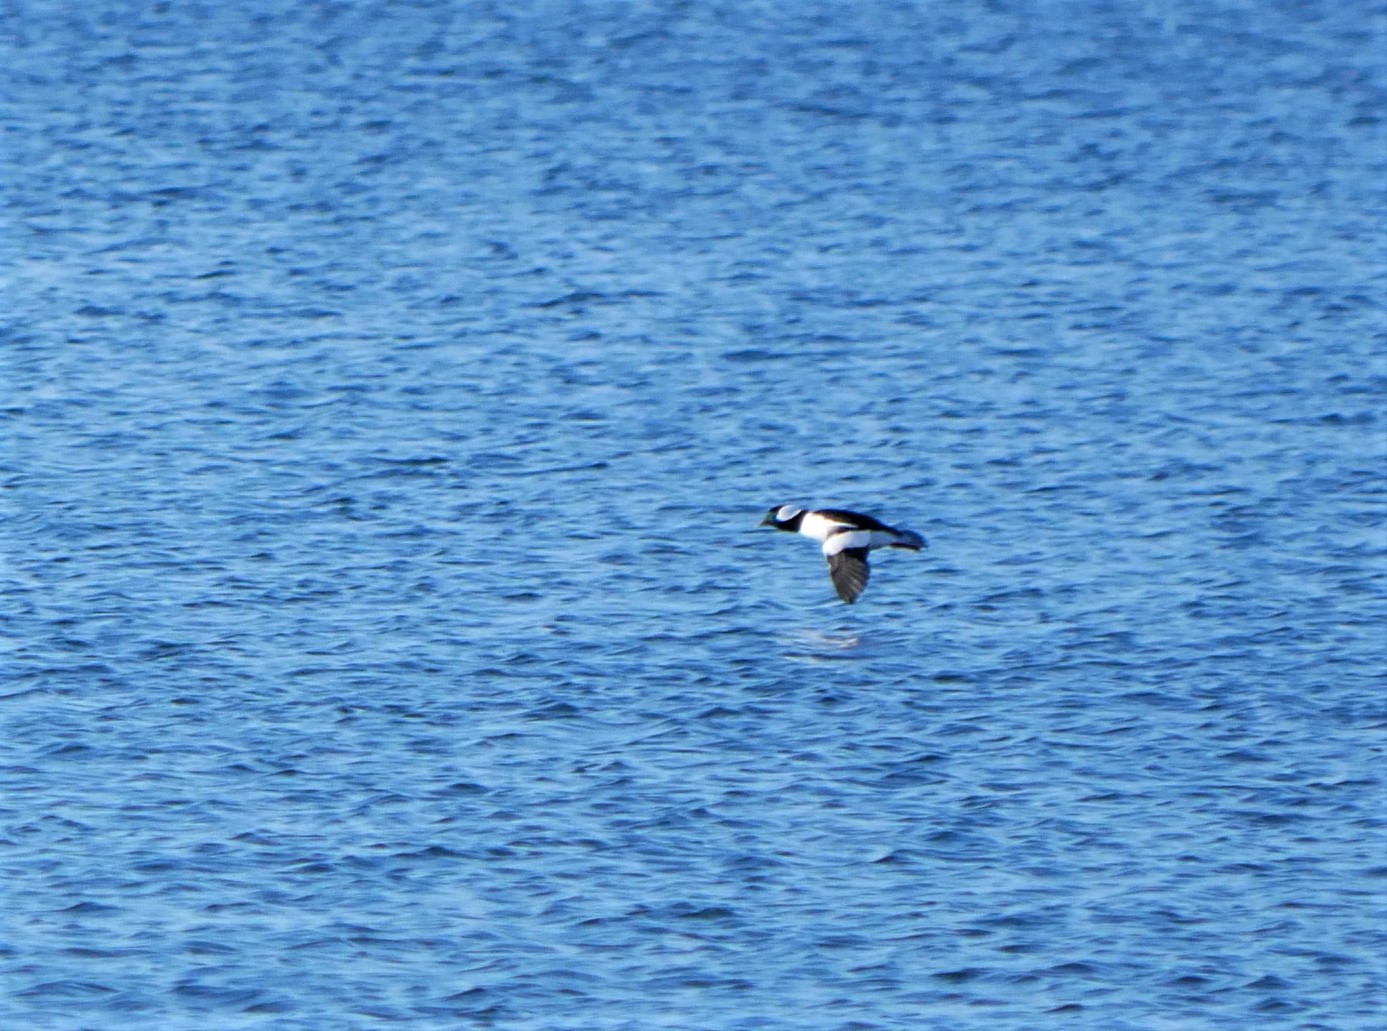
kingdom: Animalia
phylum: Chordata
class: Aves
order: Anseriformes
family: Anatidae
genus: Bucephala
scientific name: Bucephala albeola
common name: Bufflehead
